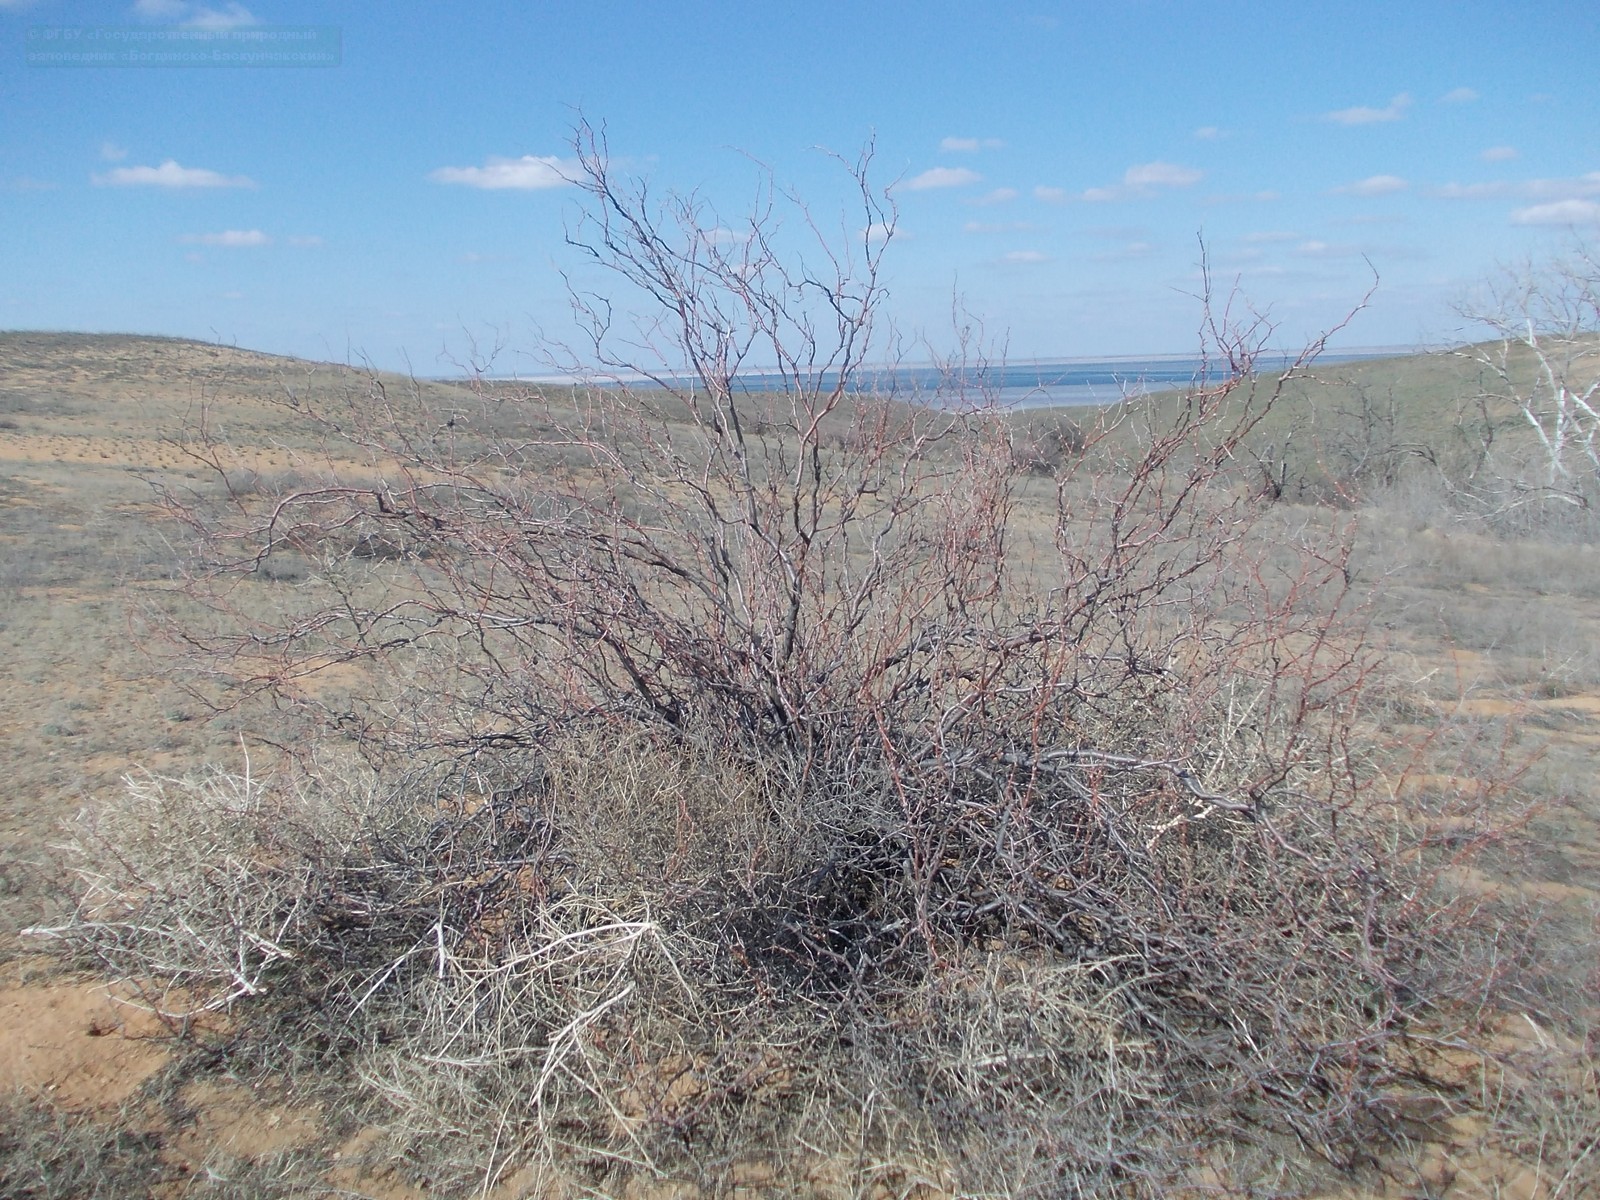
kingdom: Plantae
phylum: Tracheophyta
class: Magnoliopsida
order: Caryophyllales
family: Polygonaceae
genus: Calligonum
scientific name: Calligonum aphyllum
